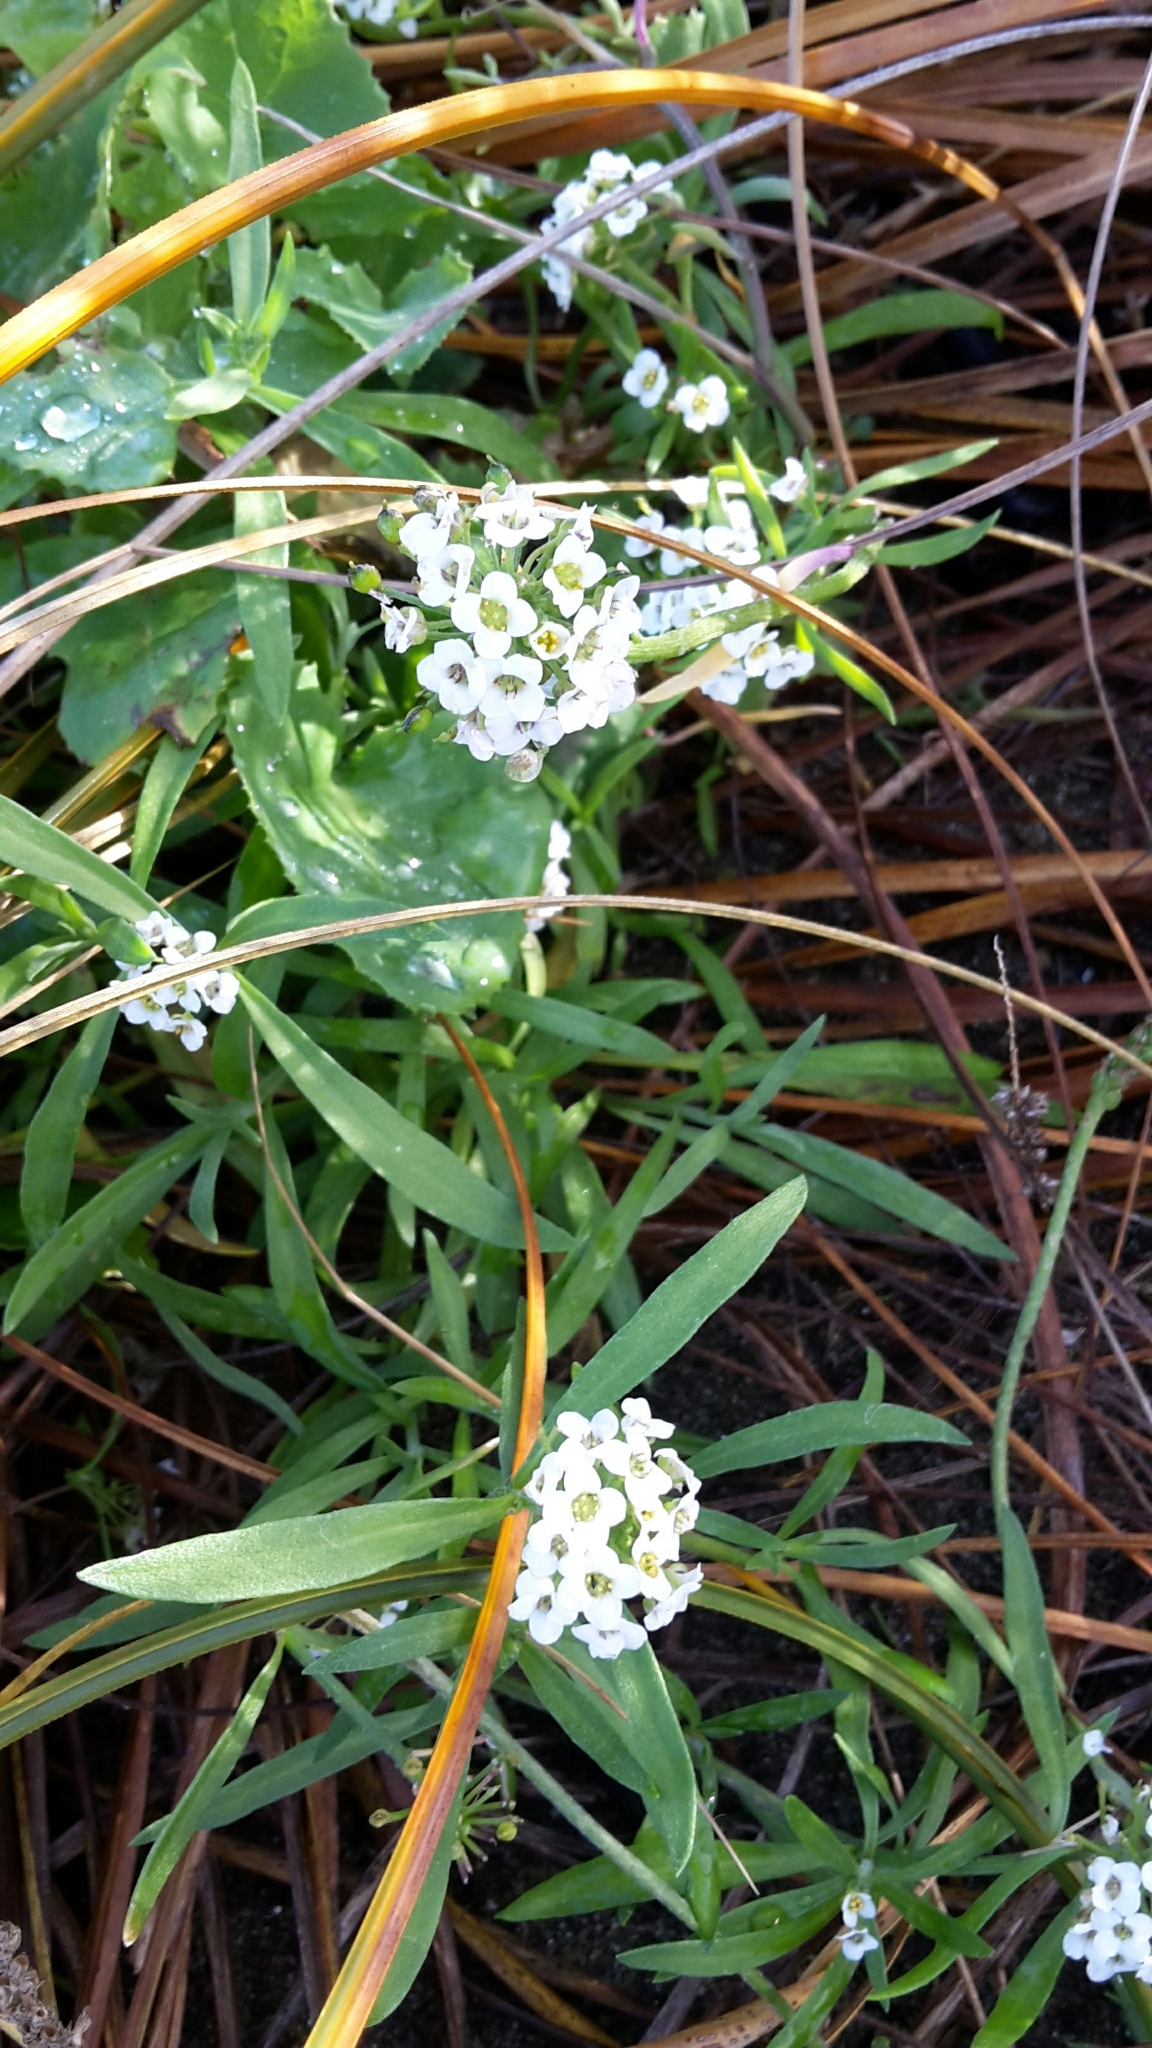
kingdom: Plantae
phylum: Tracheophyta
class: Liliopsida
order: Poales
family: Cyperaceae
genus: Ficinia
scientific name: Ficinia spiralis
